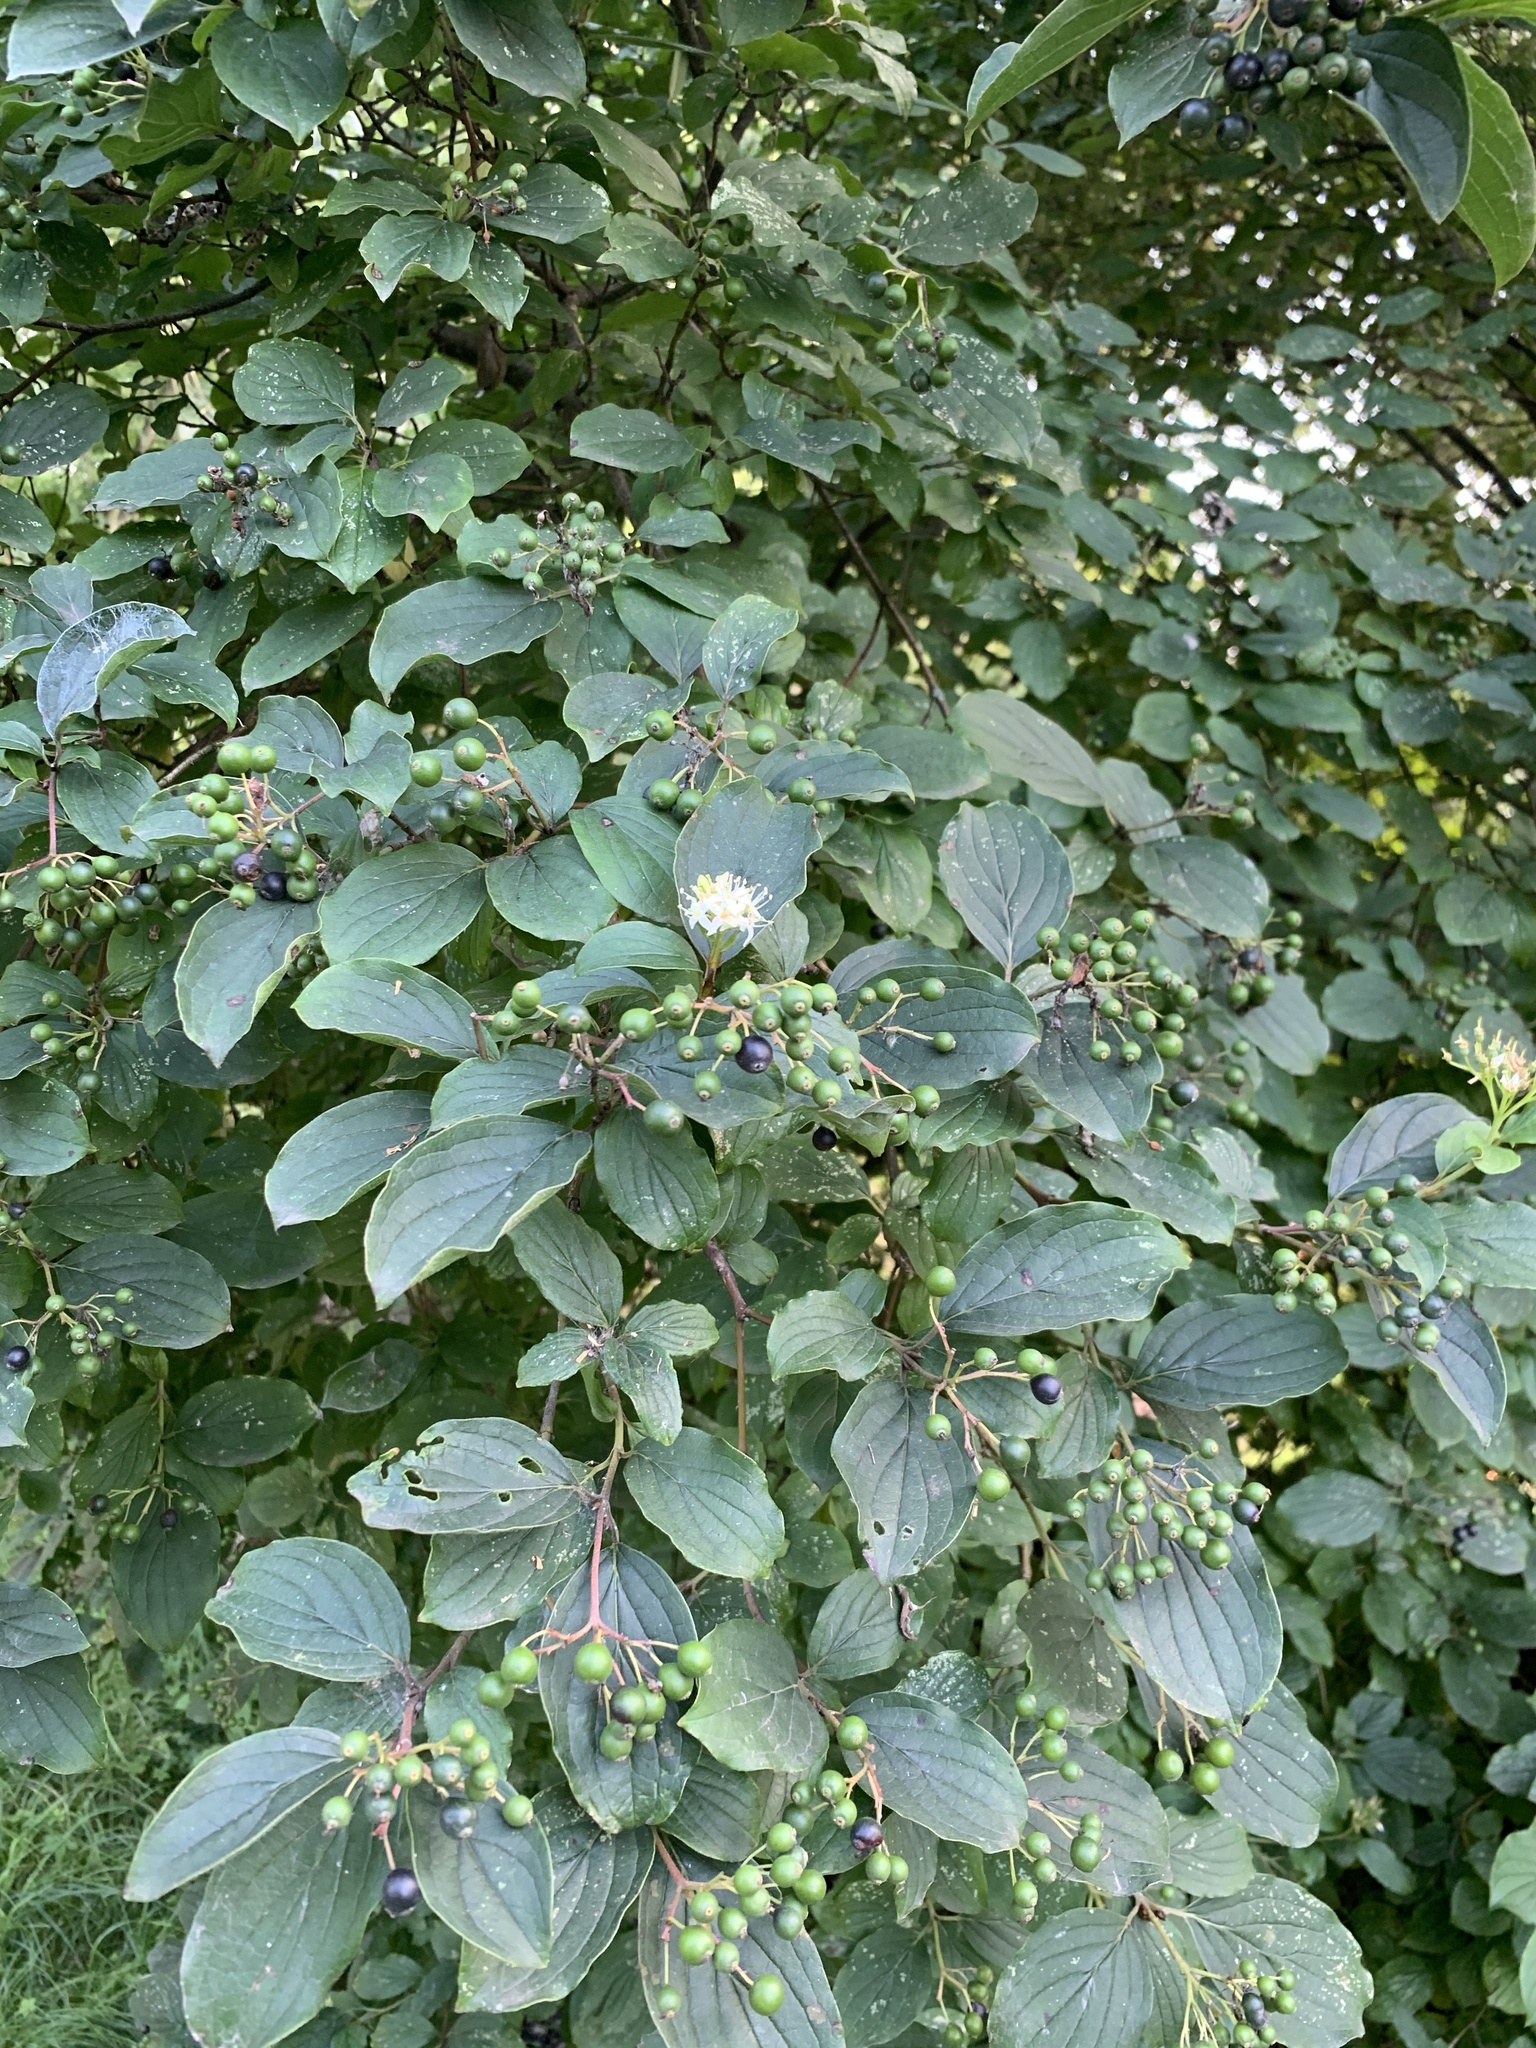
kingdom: Plantae
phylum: Tracheophyta
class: Magnoliopsida
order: Cornales
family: Cornaceae
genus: Cornus
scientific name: Cornus sanguinea
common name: Dogwood
